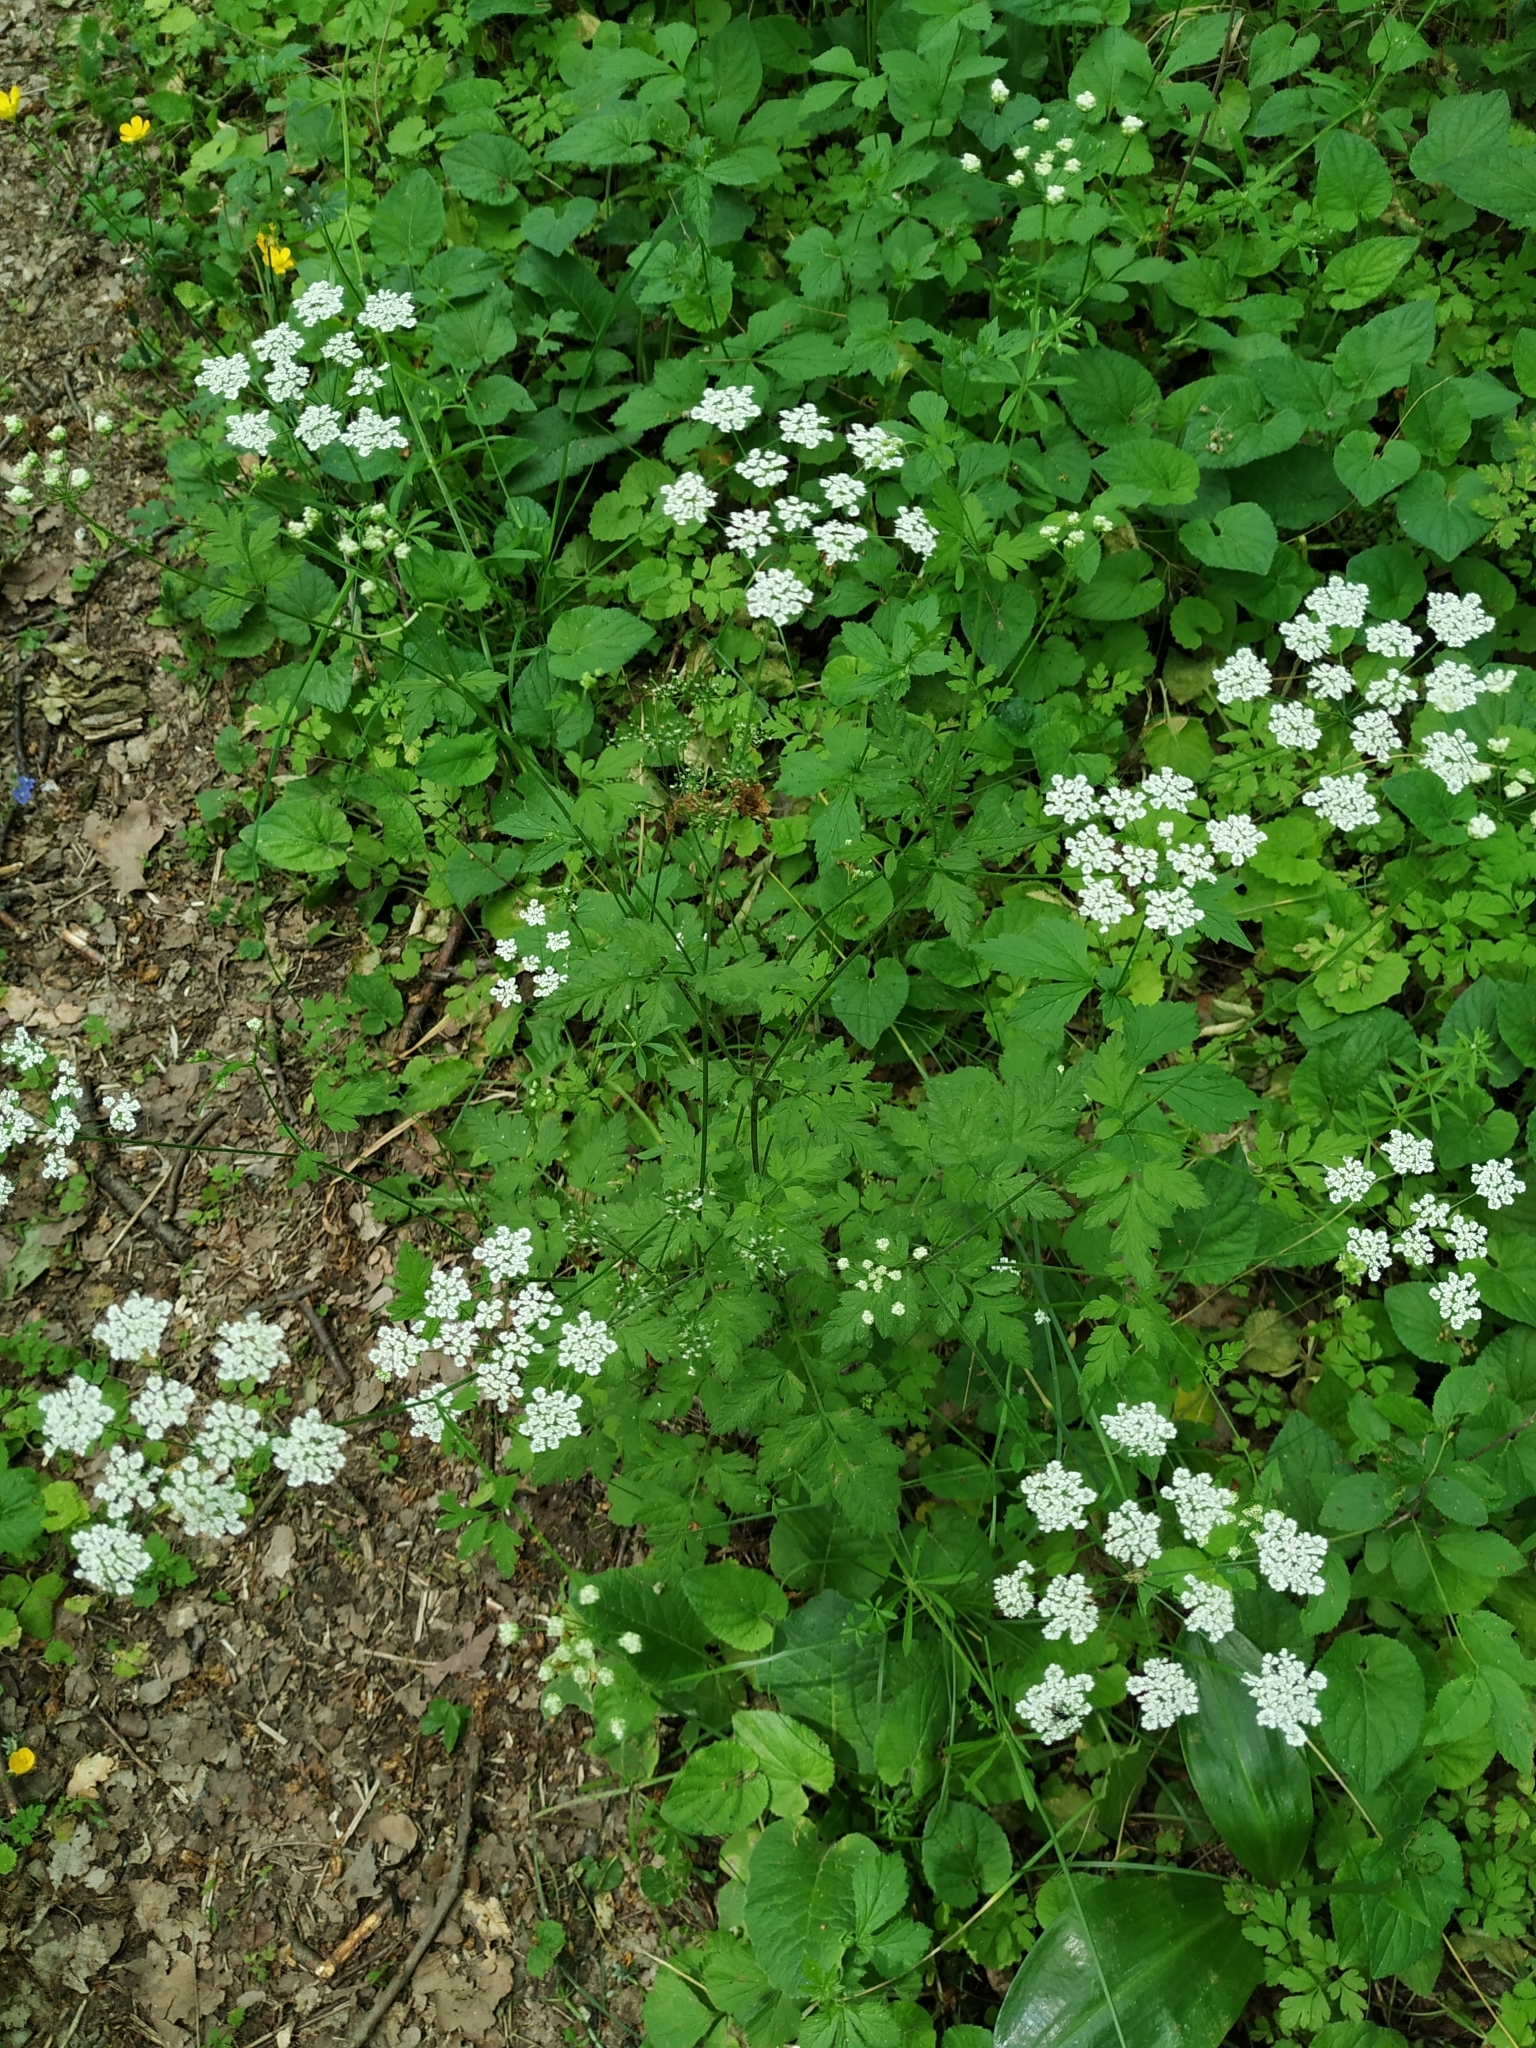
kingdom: Plantae
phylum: Tracheophyta
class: Magnoliopsida
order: Apiales
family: Apiaceae
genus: Chaerophyllum
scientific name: Chaerophyllum temulum
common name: Rough chervil
